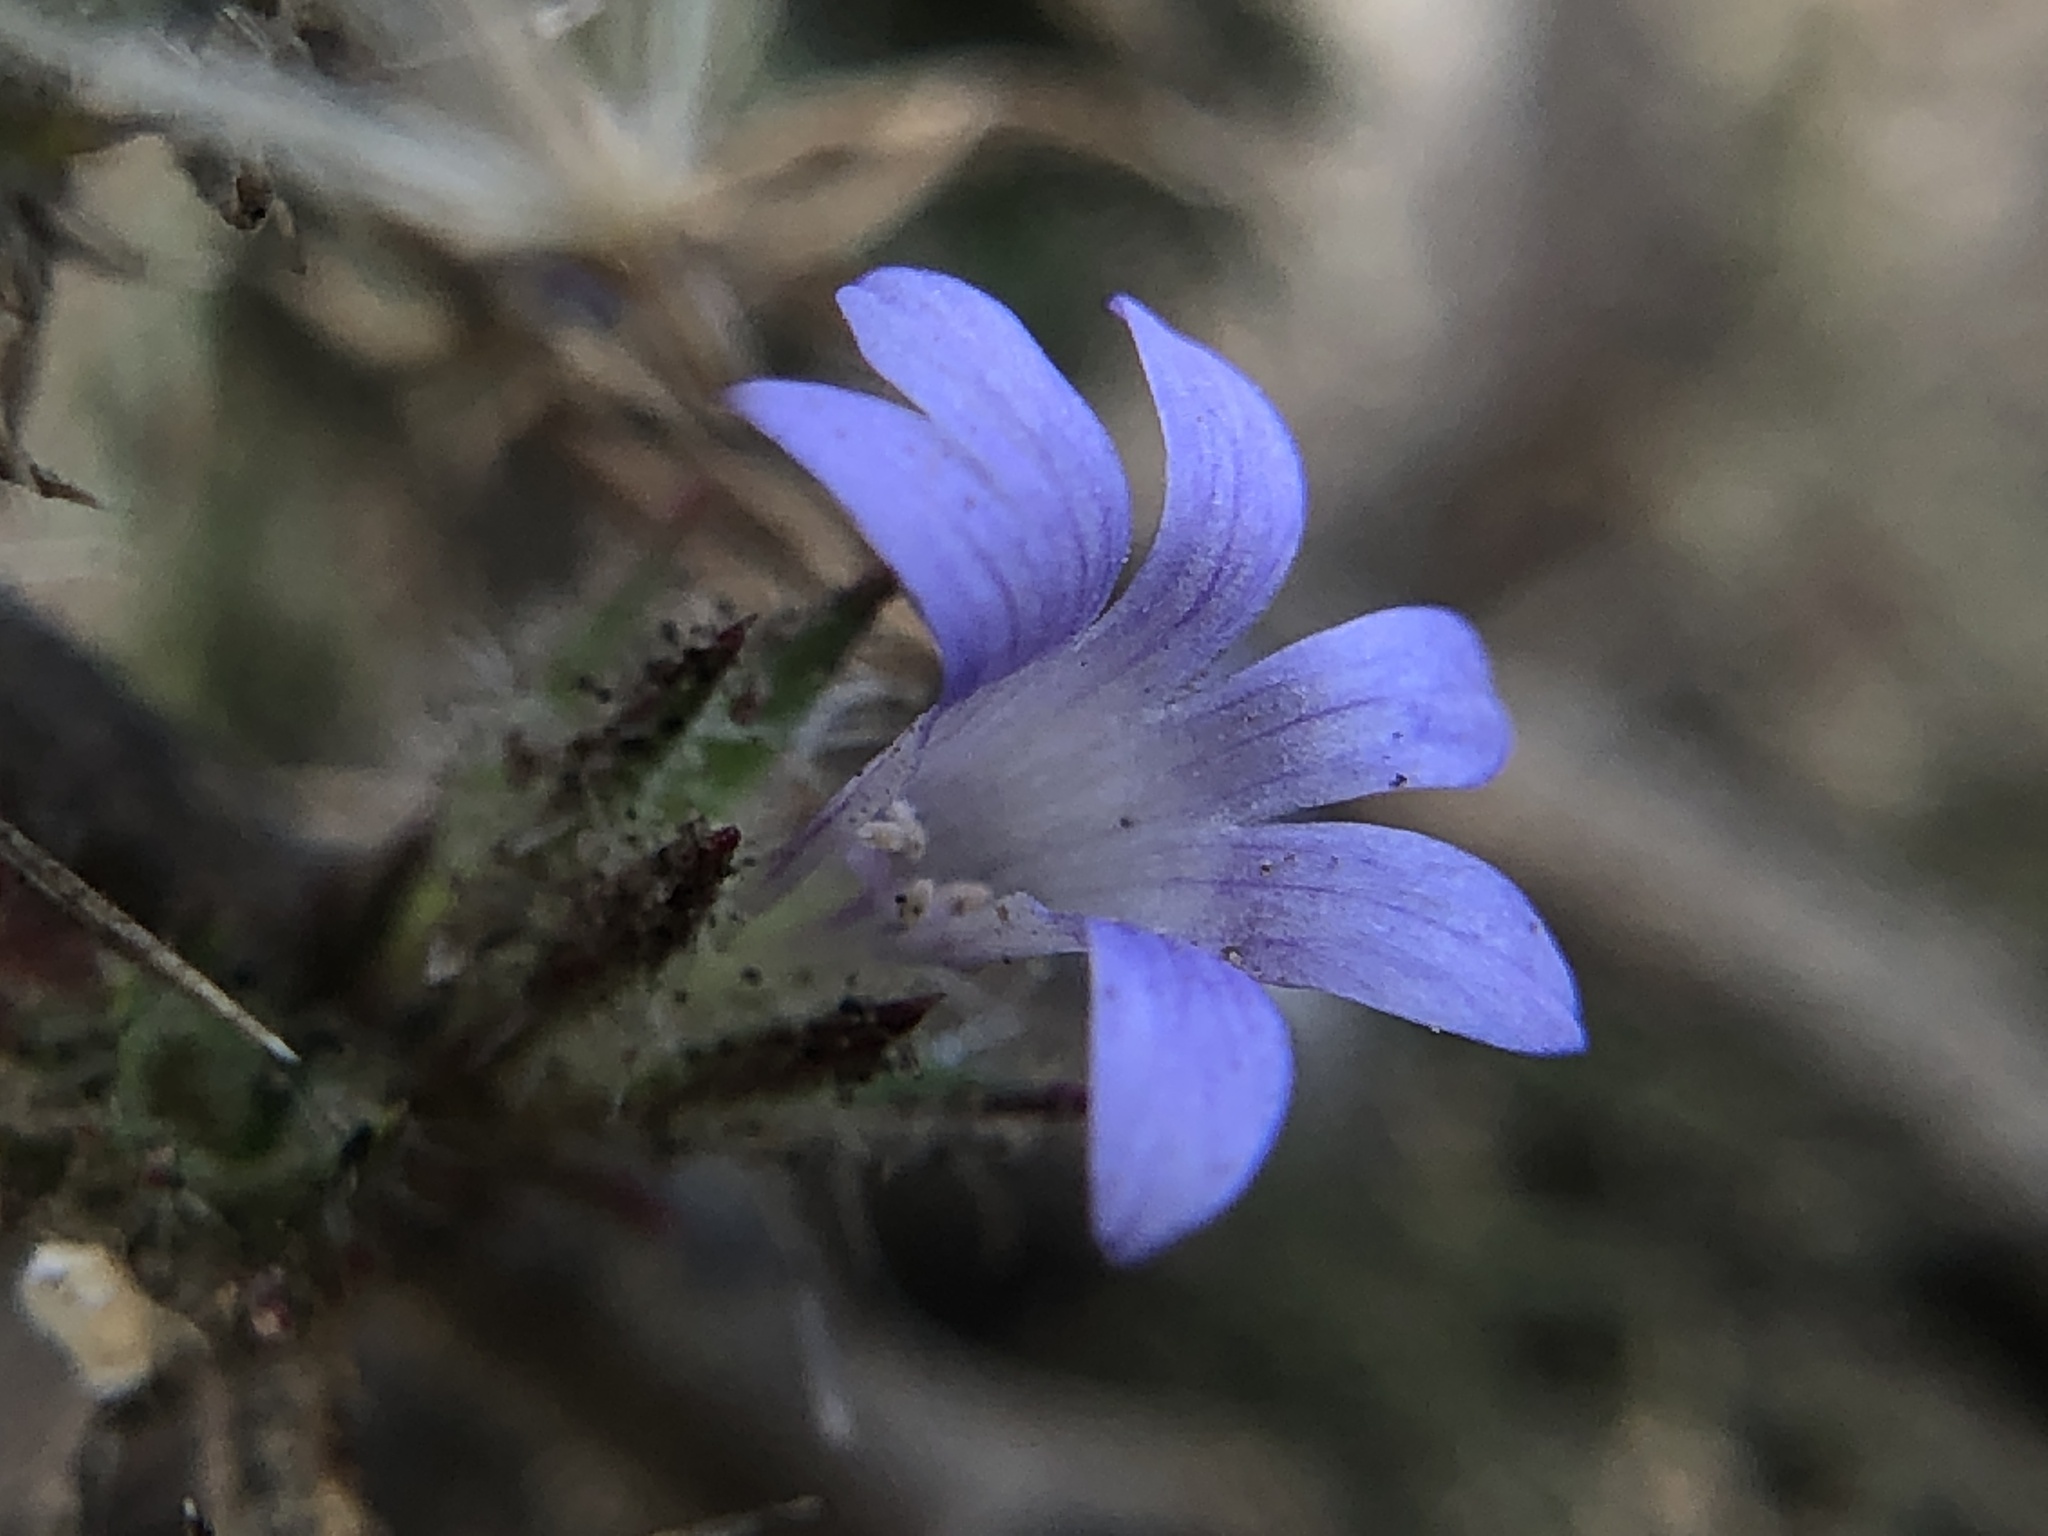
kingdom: Plantae
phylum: Tracheophyta
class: Magnoliopsida
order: Ericales
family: Polemoniaceae
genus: Navarretia
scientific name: Navarretia squarrosa
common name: Skunkweed
